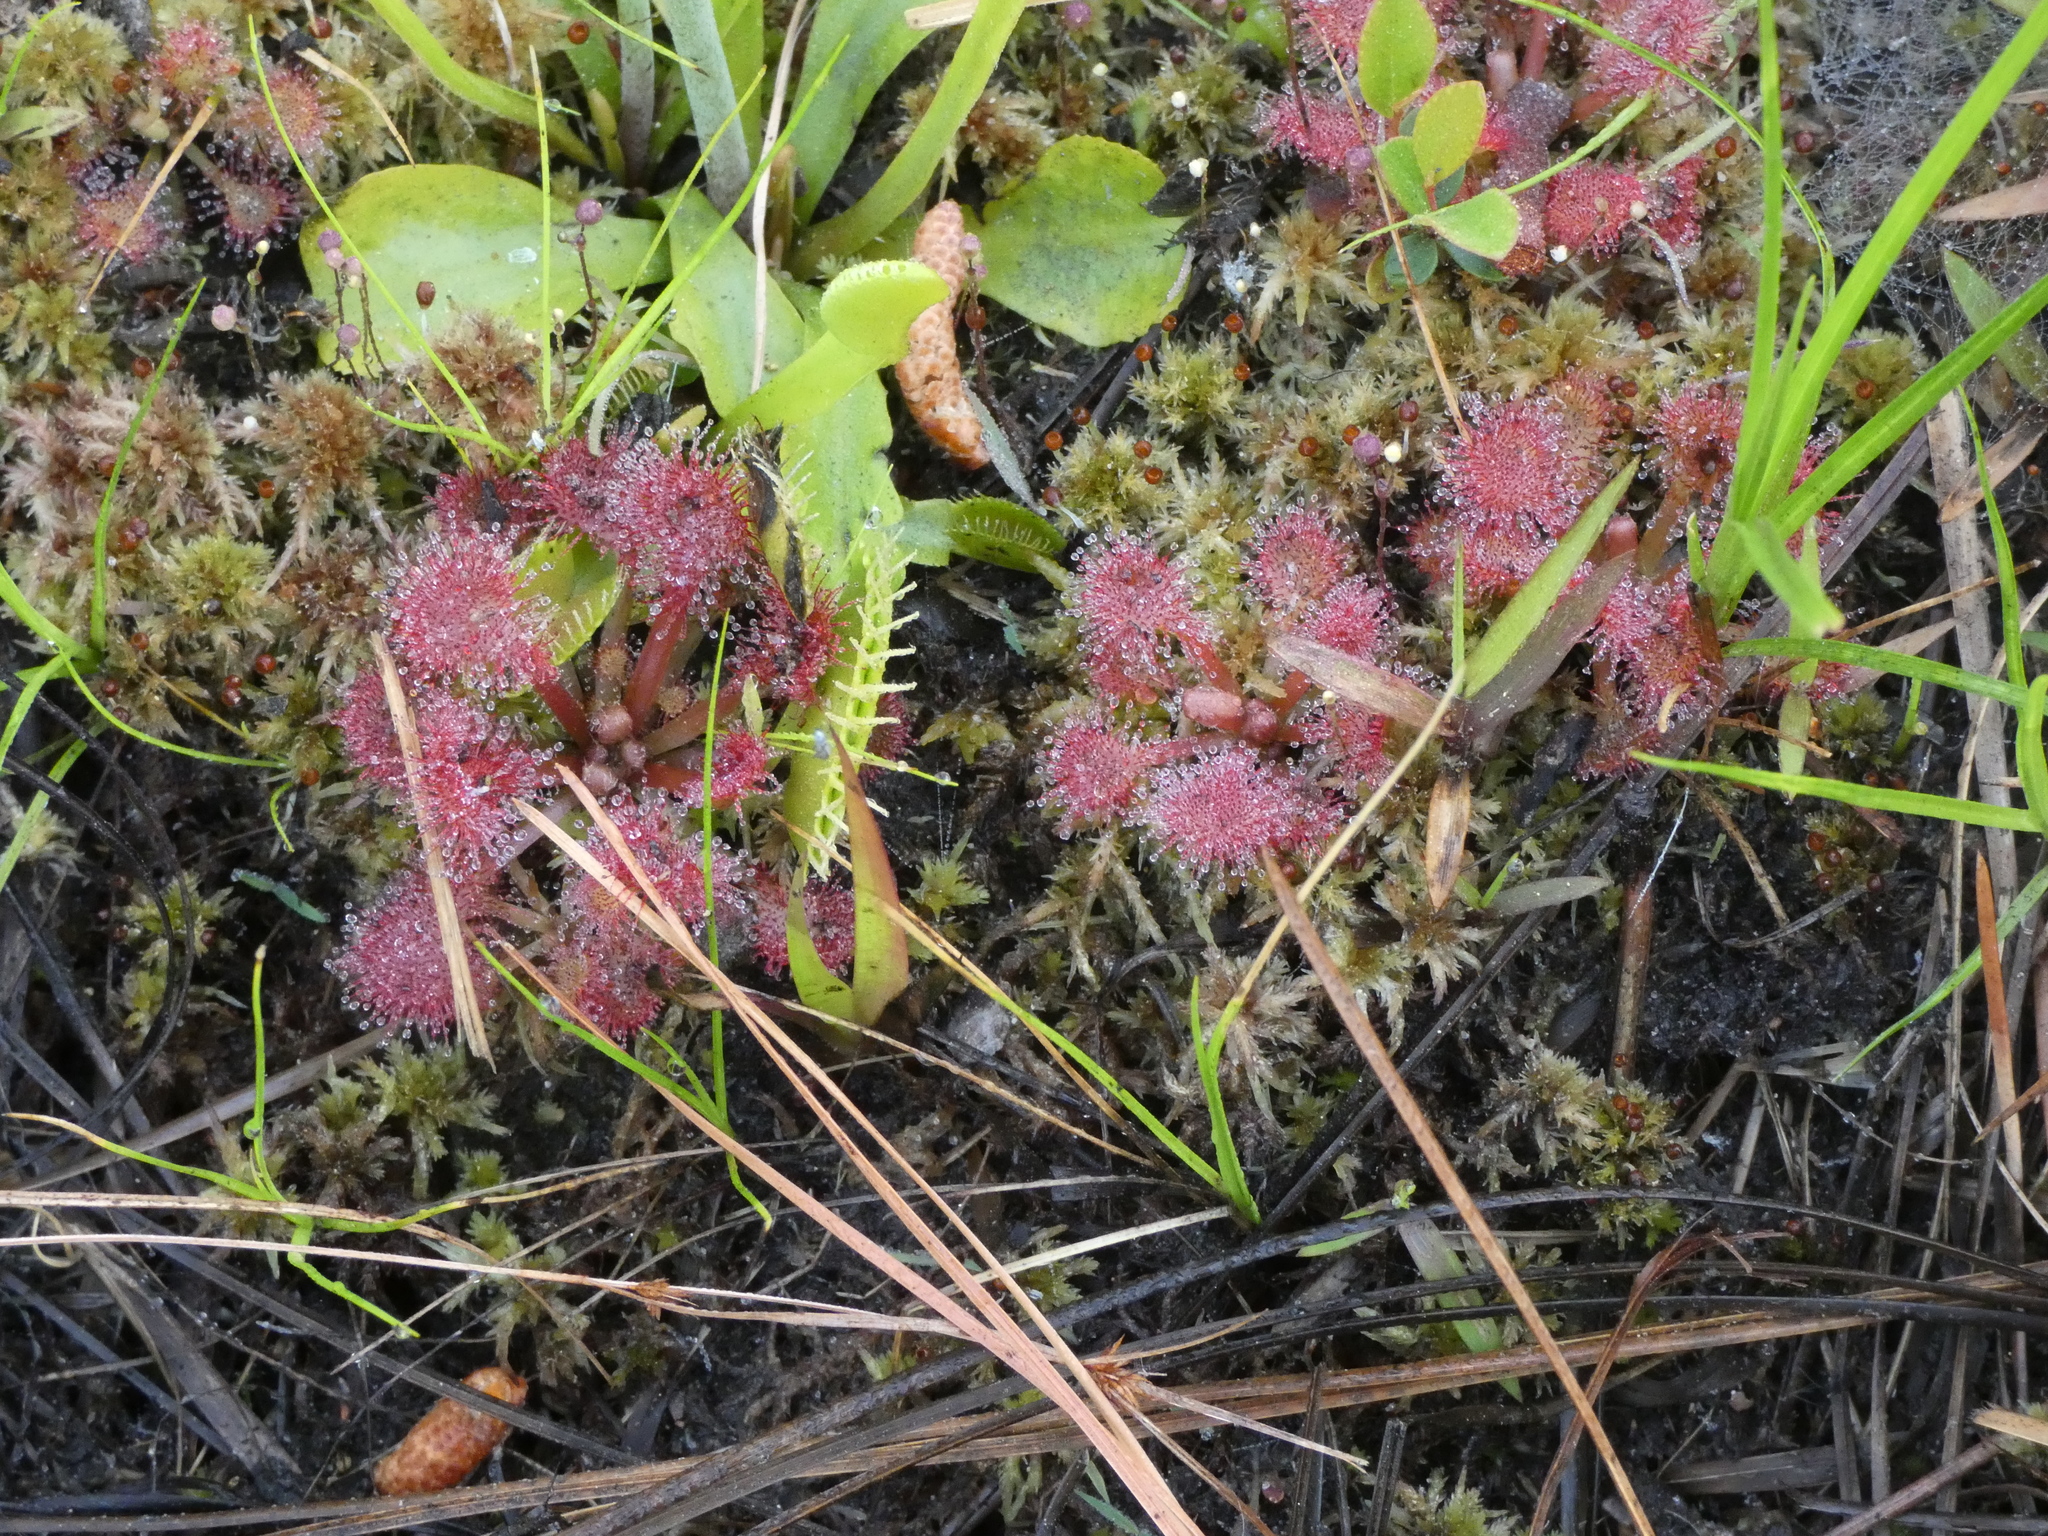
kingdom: Plantae
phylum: Tracheophyta
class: Magnoliopsida
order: Caryophyllales
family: Droseraceae
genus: Drosera
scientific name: Drosera capillaris
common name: Pink sundew
